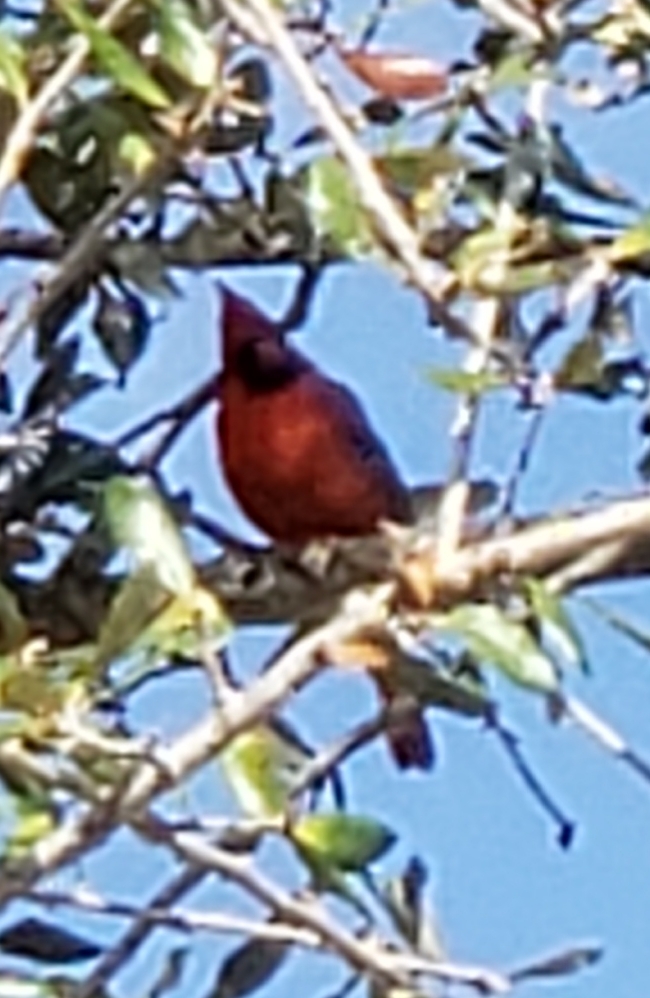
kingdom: Animalia
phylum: Chordata
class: Aves
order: Passeriformes
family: Cardinalidae
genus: Cardinalis
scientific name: Cardinalis cardinalis
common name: Northern cardinal
